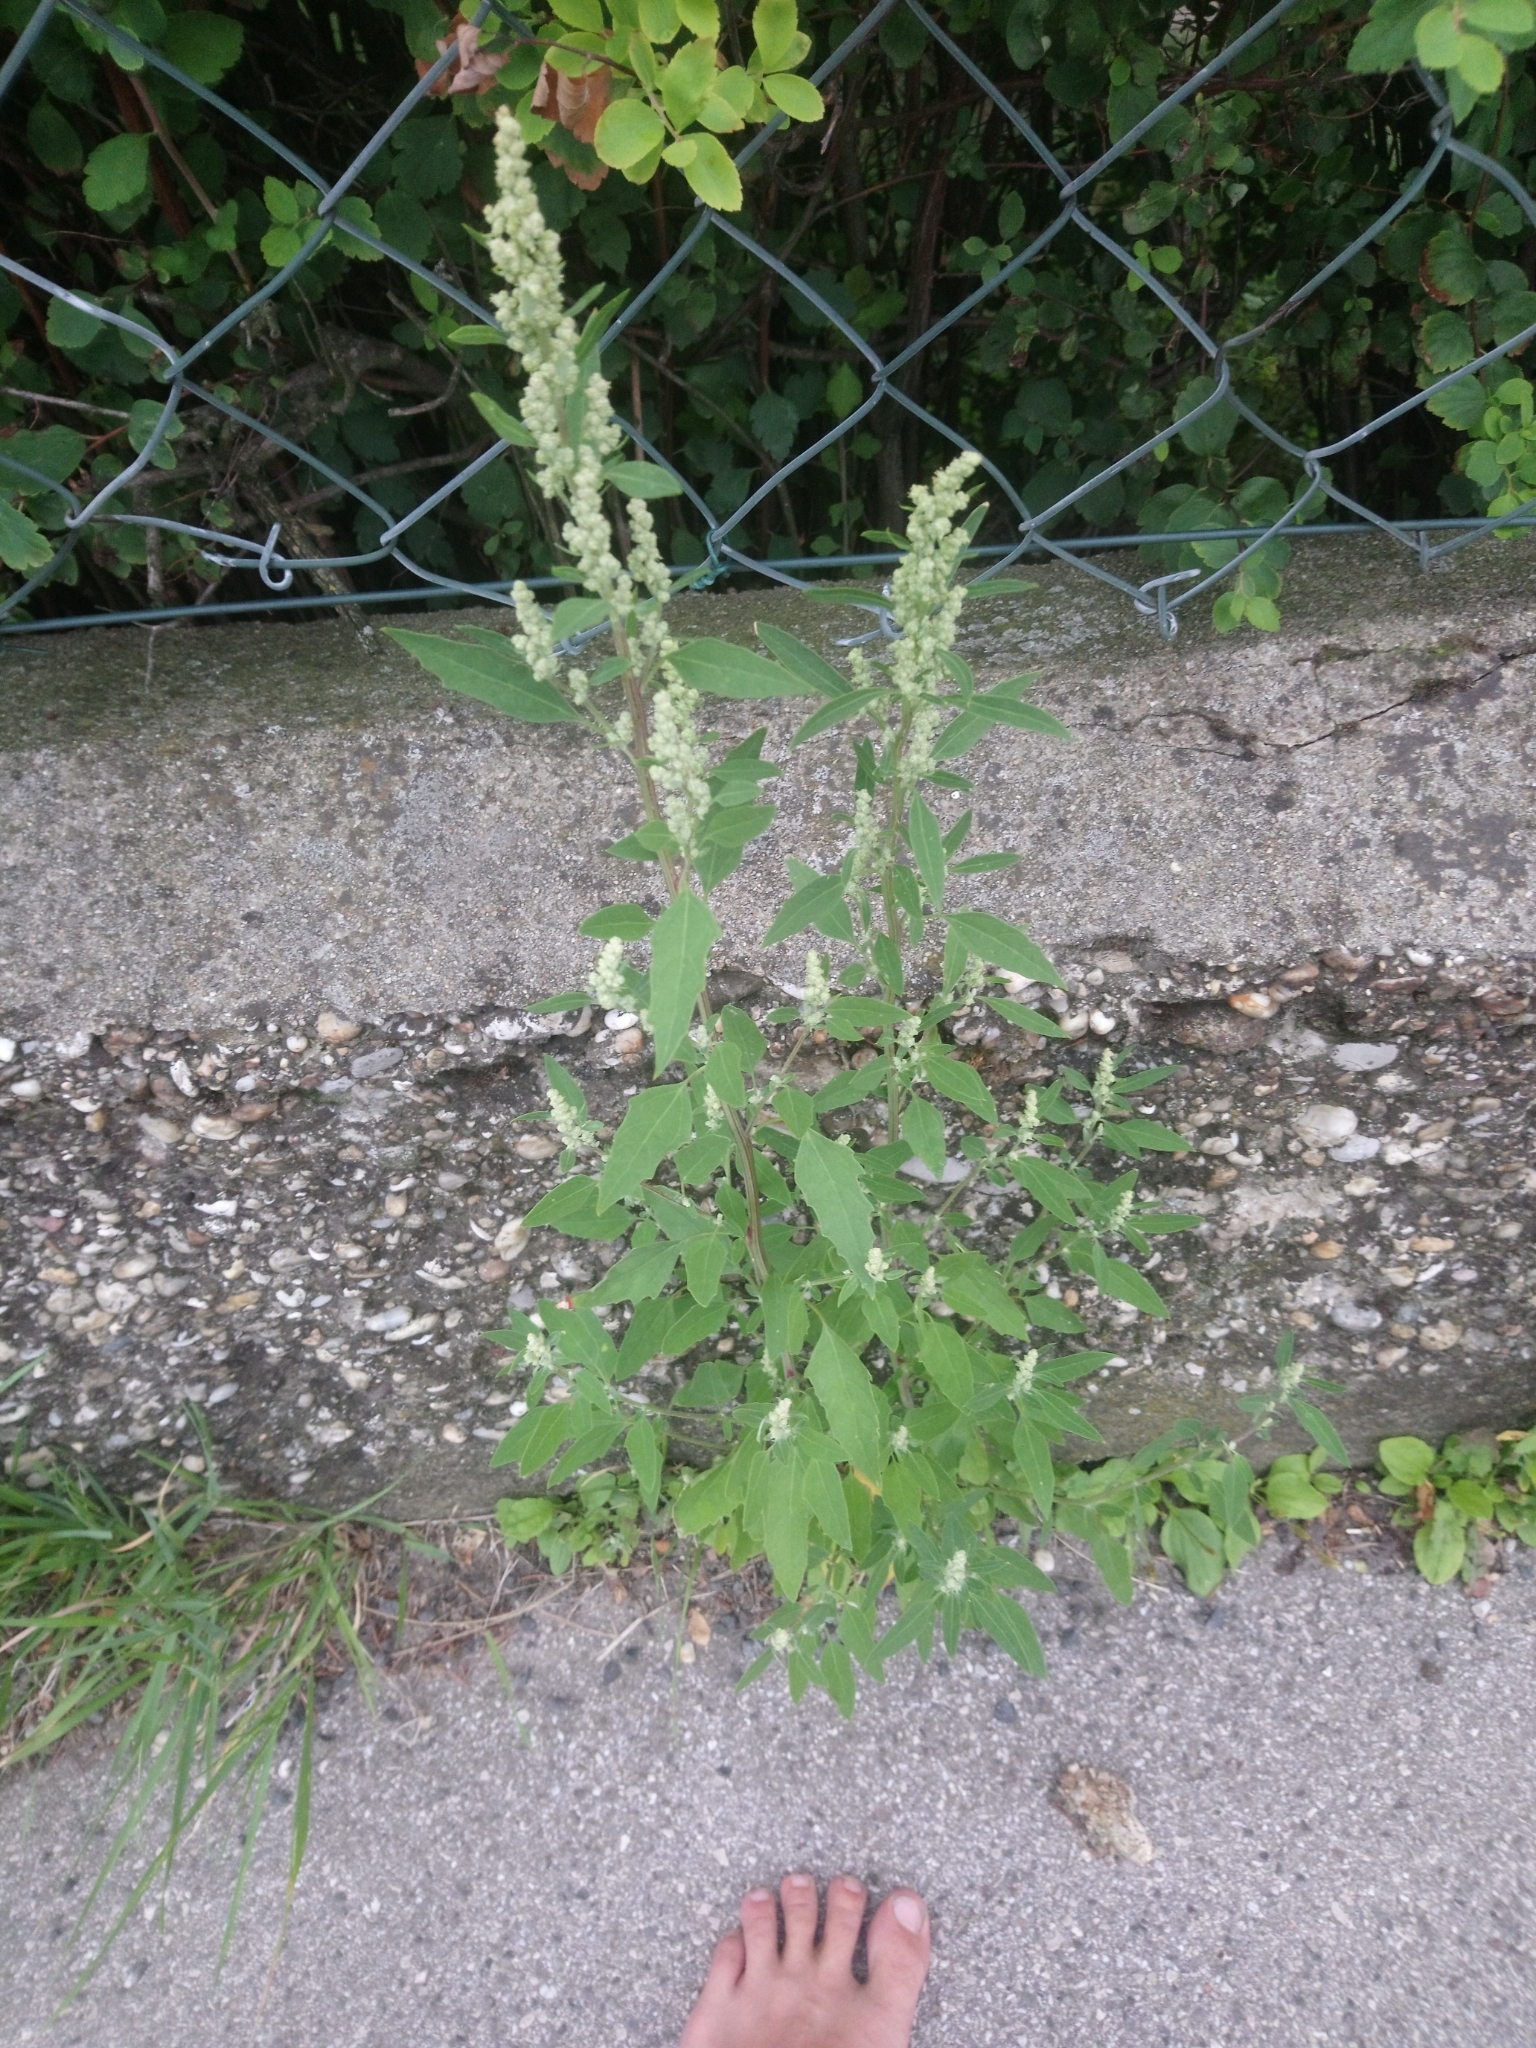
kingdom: Plantae
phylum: Tracheophyta
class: Magnoliopsida
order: Caryophyllales
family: Amaranthaceae
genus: Chenopodium
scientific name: Chenopodium album
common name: Fat-hen
